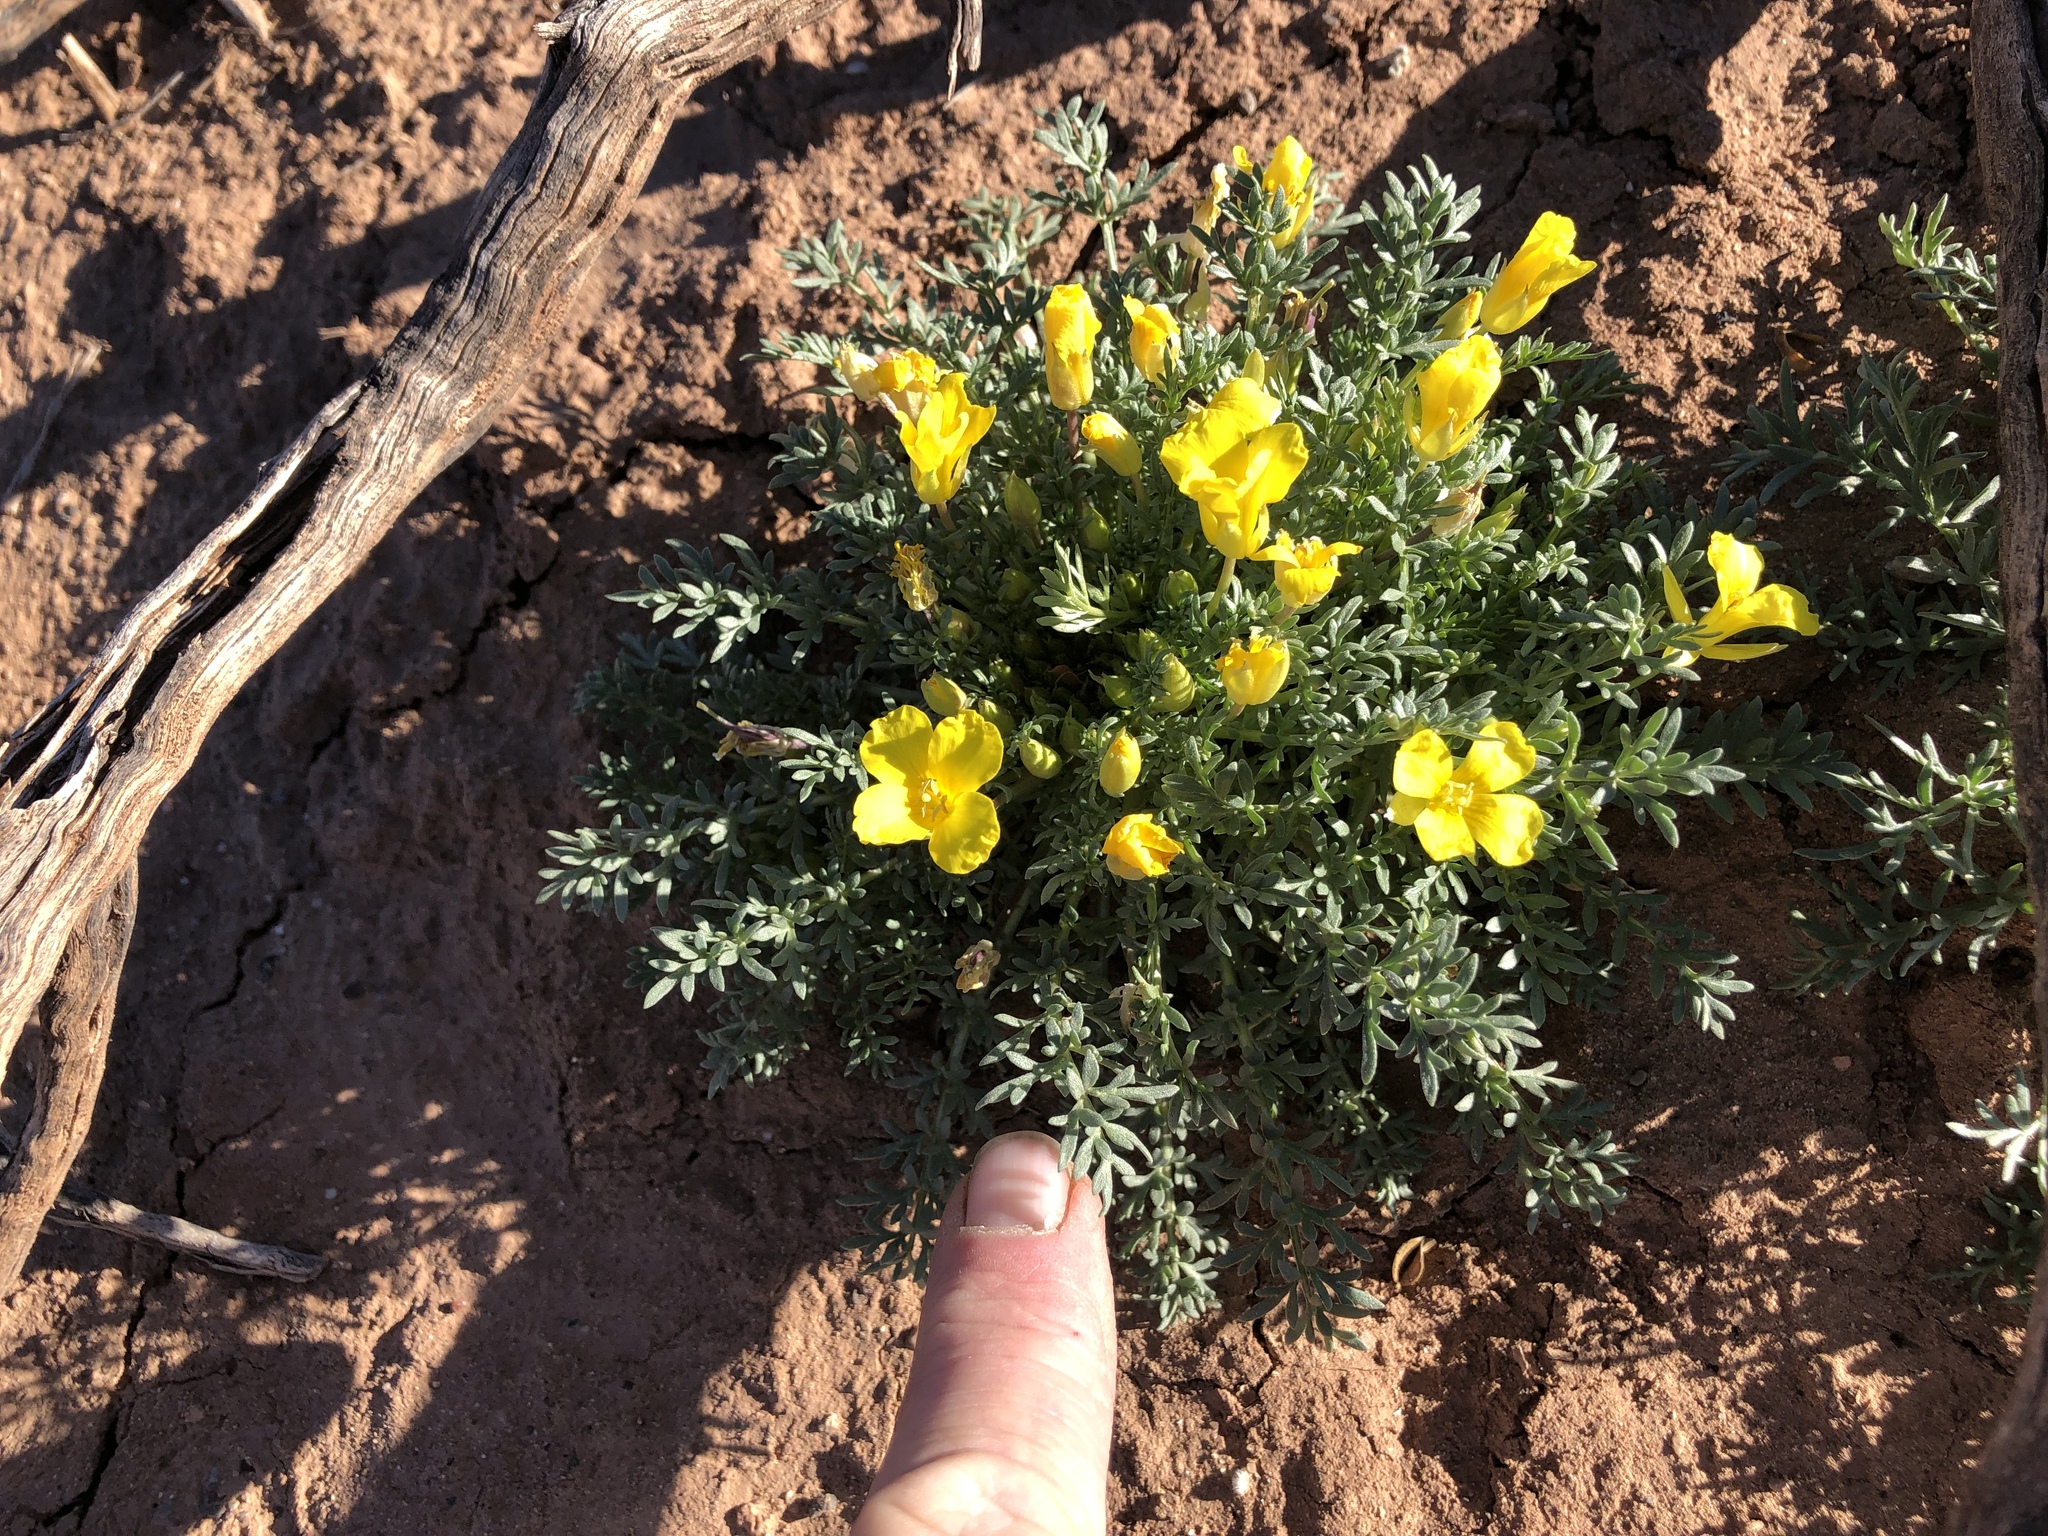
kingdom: Plantae
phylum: Tracheophyta
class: Magnoliopsida
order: Brassicales
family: Brassicaceae
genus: Selenia
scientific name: Selenia dissecta
